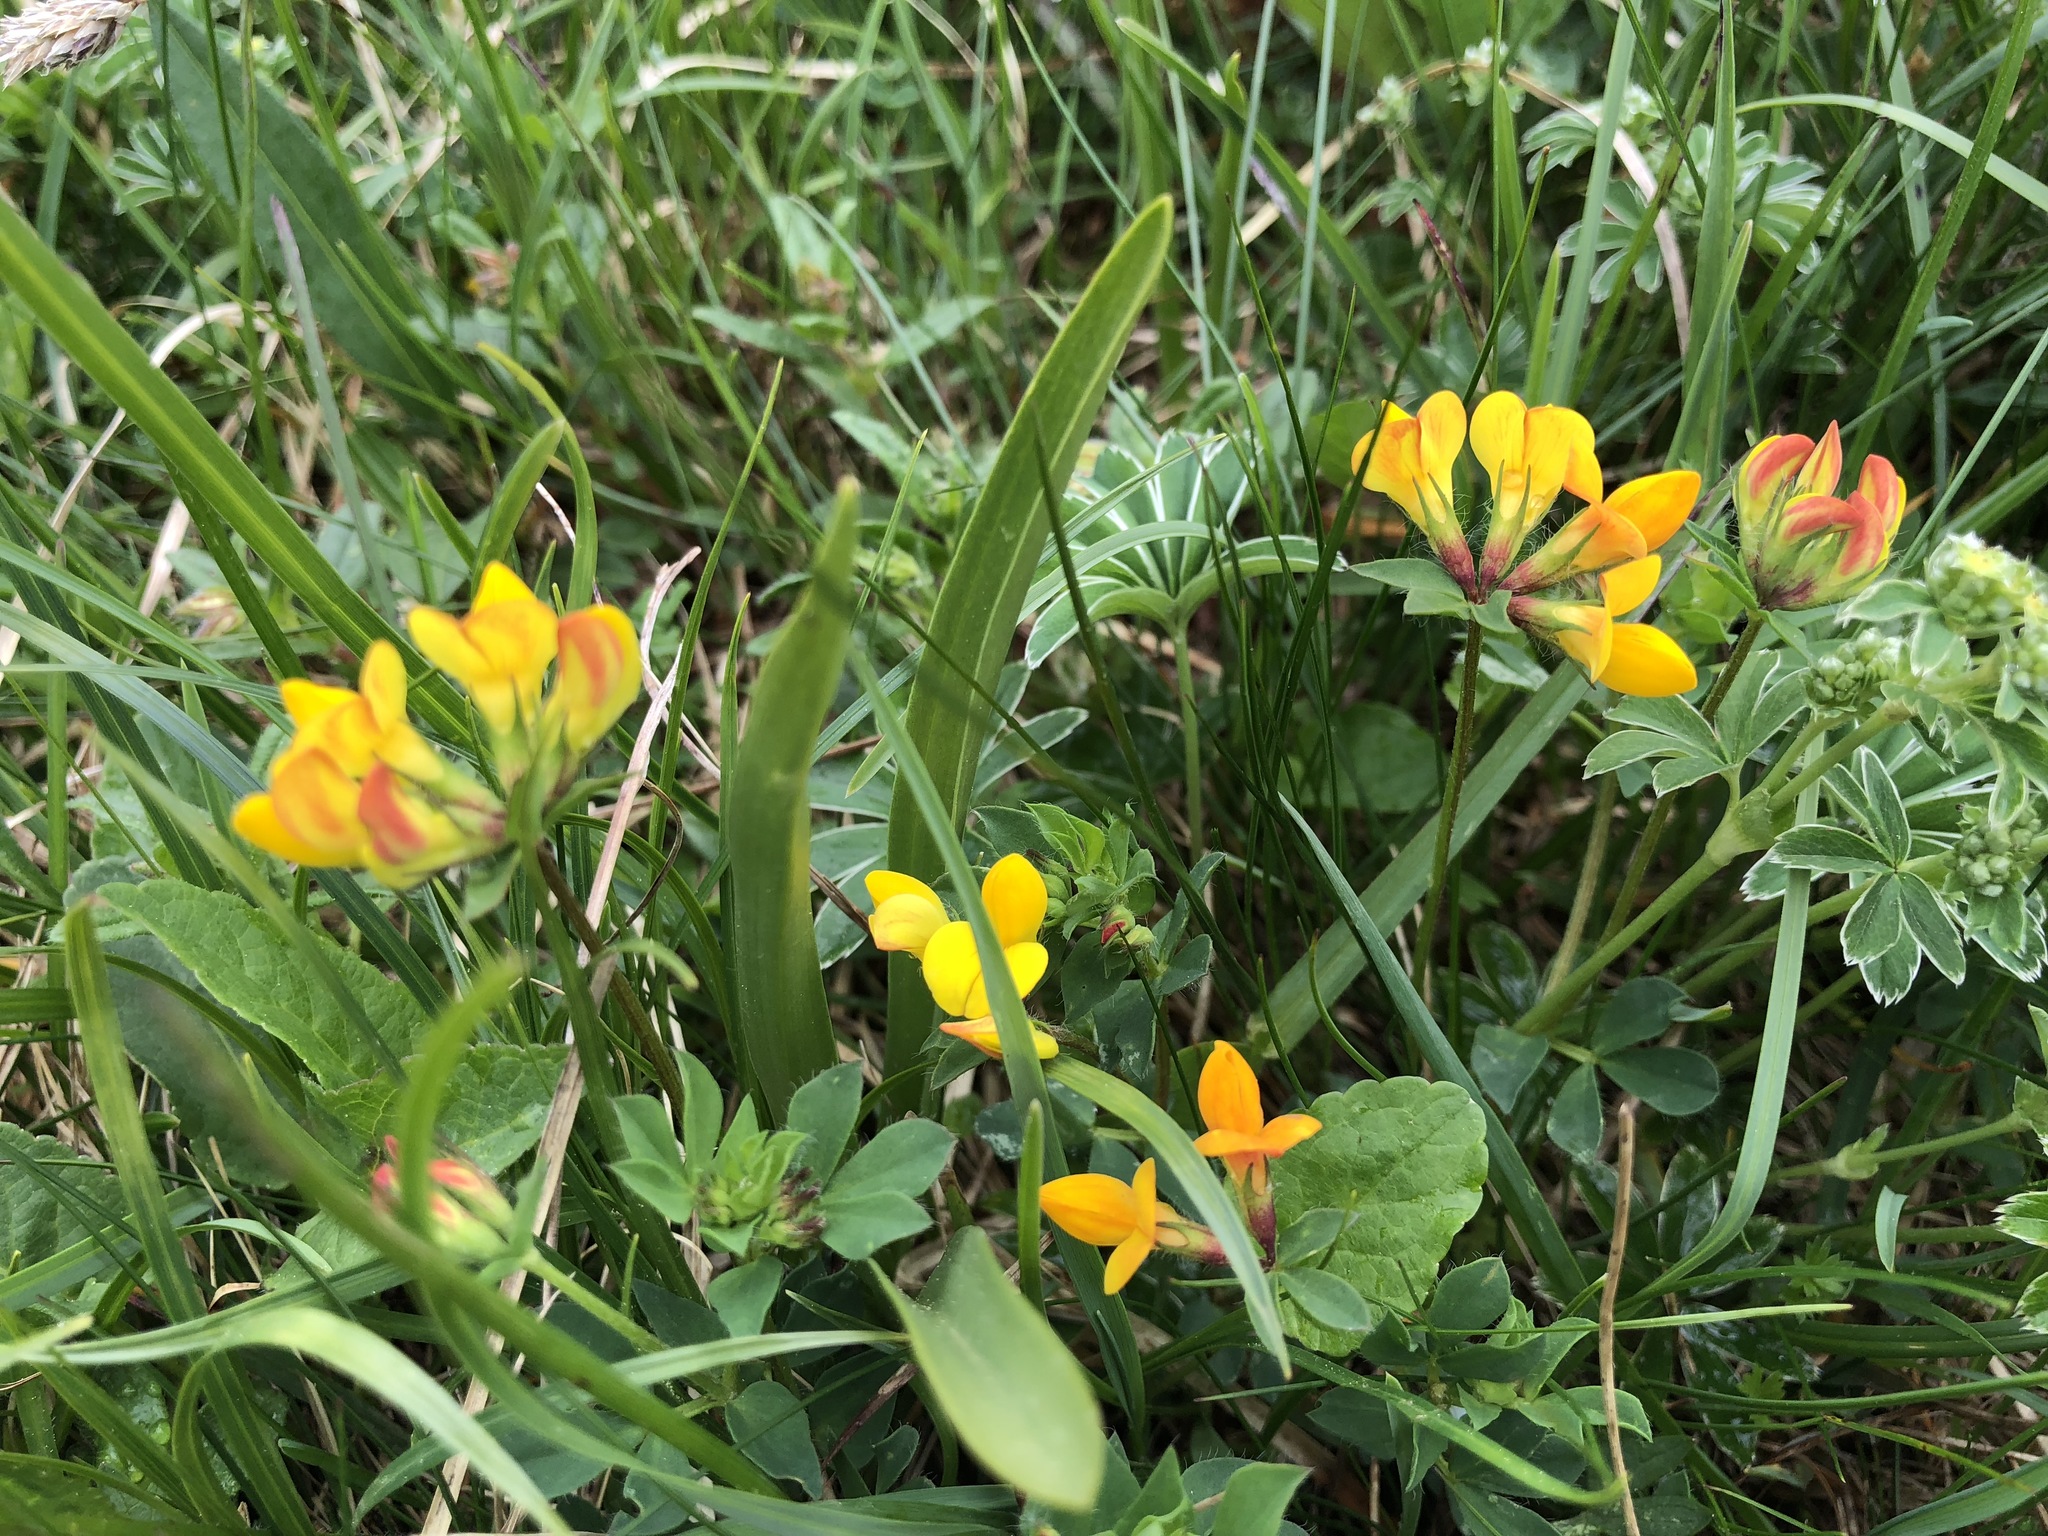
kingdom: Plantae
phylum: Tracheophyta
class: Magnoliopsida
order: Fabales
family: Fabaceae
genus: Lotus
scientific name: Lotus corniculatus
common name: Common bird's-foot-trefoil
